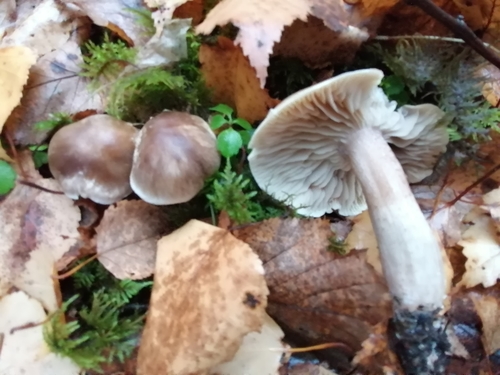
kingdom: Fungi
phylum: Basidiomycota
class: Agaricomycetes
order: Agaricales
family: Tricholomataceae
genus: Tricholoma
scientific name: Tricholoma portentosum
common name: Coalman
